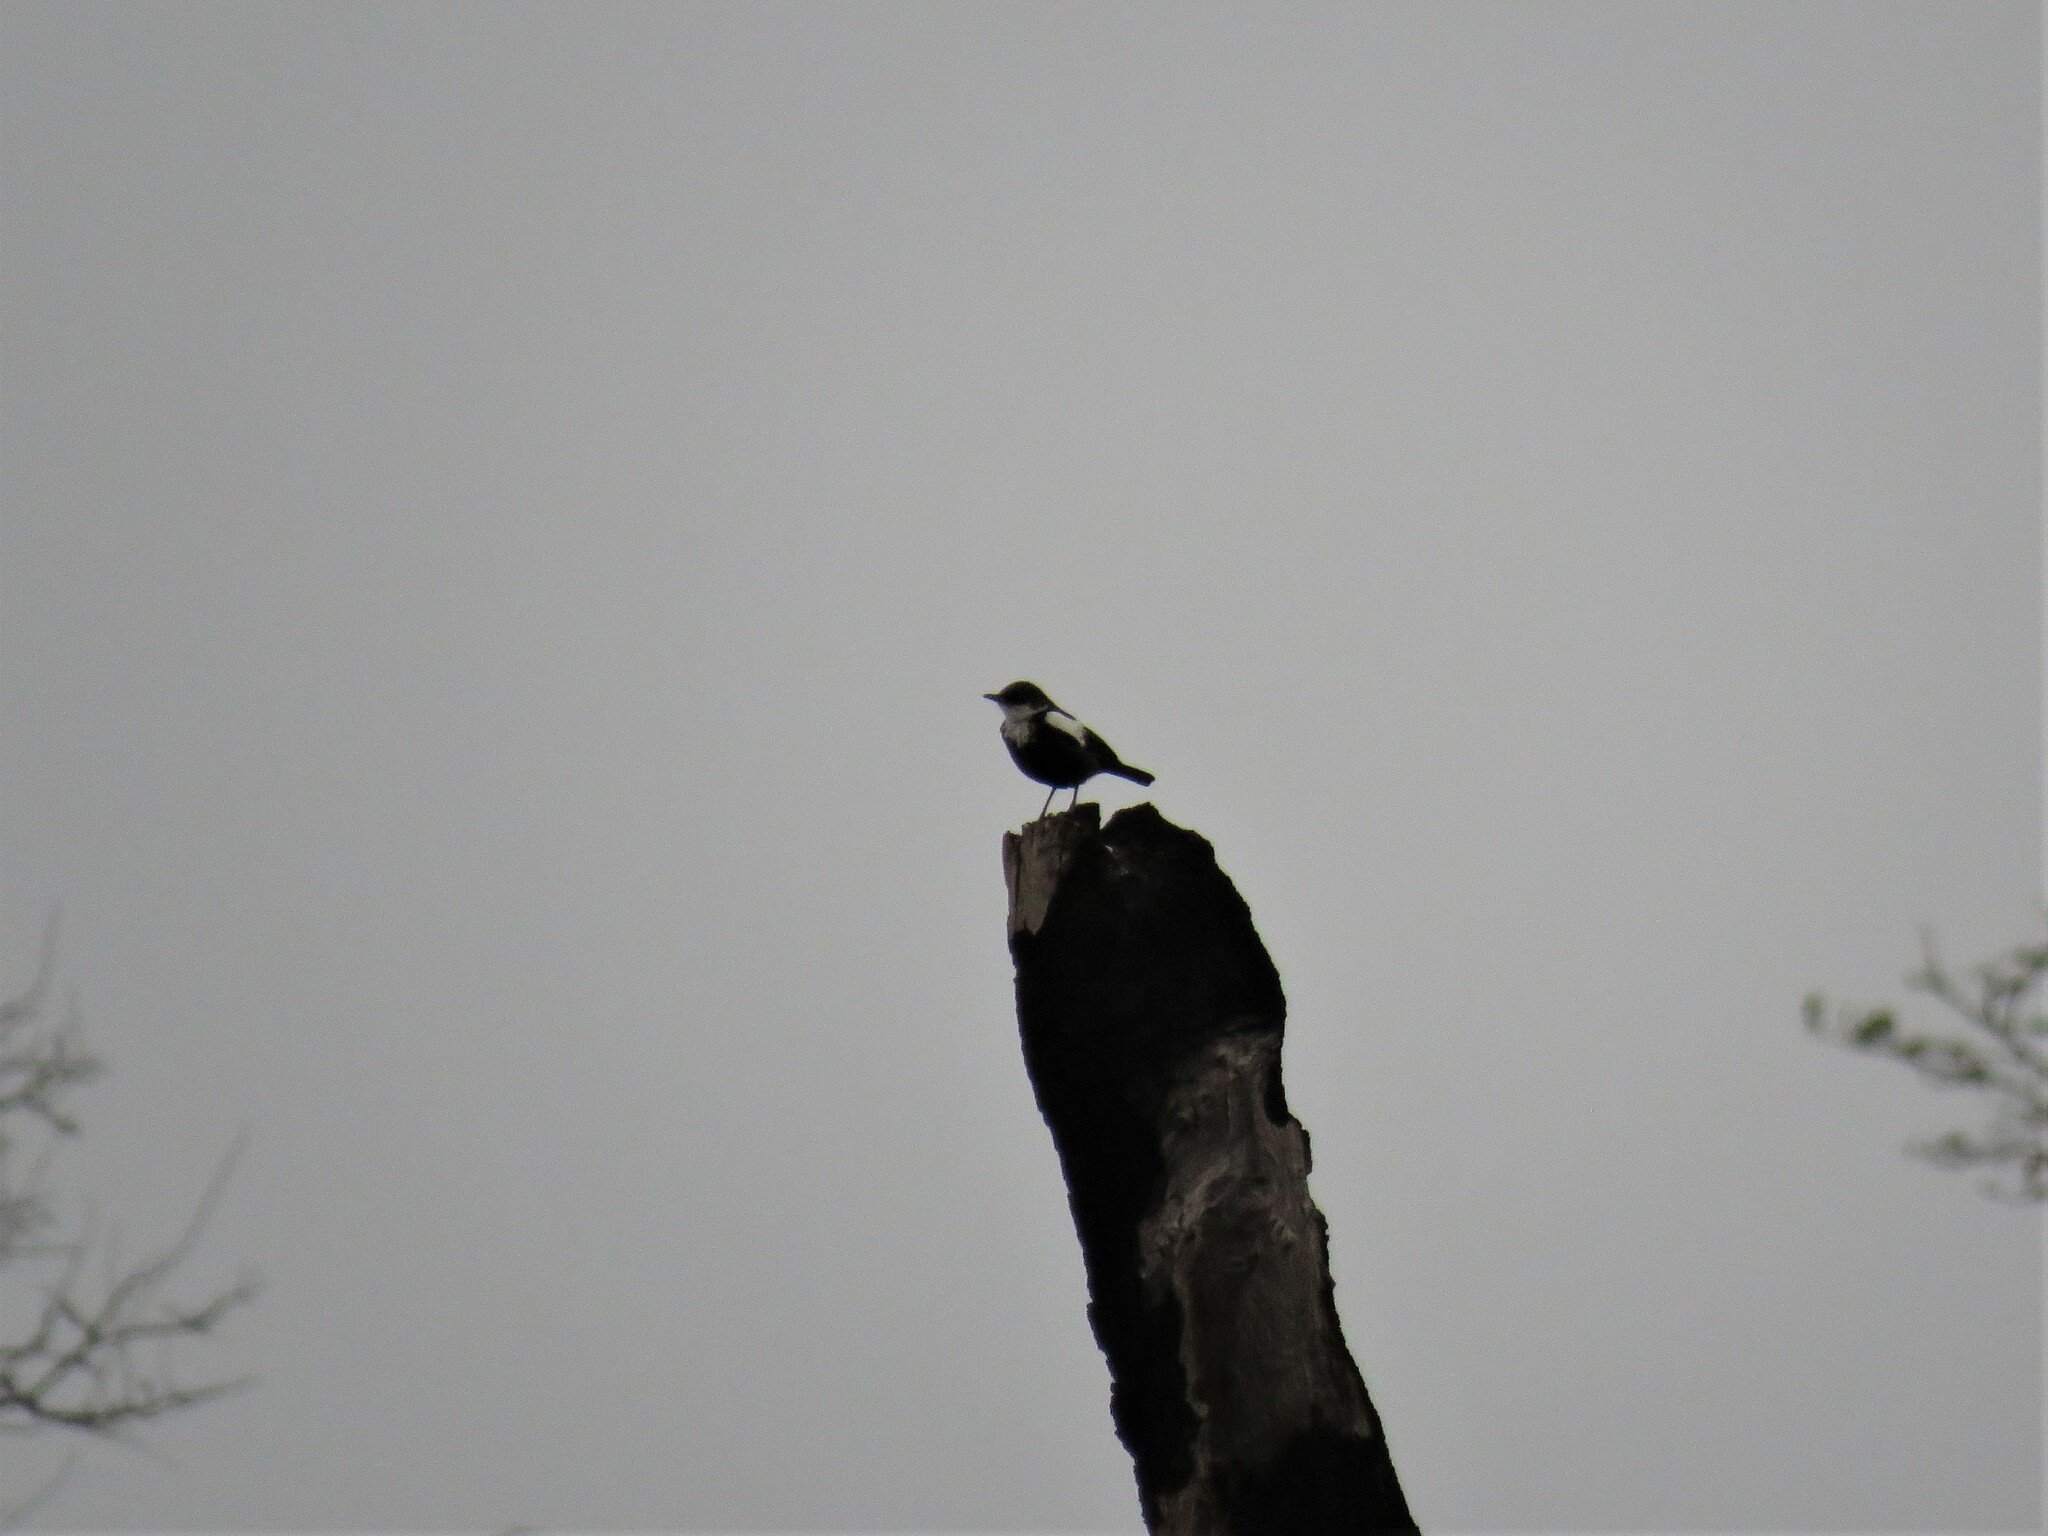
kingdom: Animalia
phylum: Chordata
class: Aves
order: Passeriformes
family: Muscicapidae
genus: Pentholaea
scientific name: Pentholaea arnotti
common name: Arnot's chat
